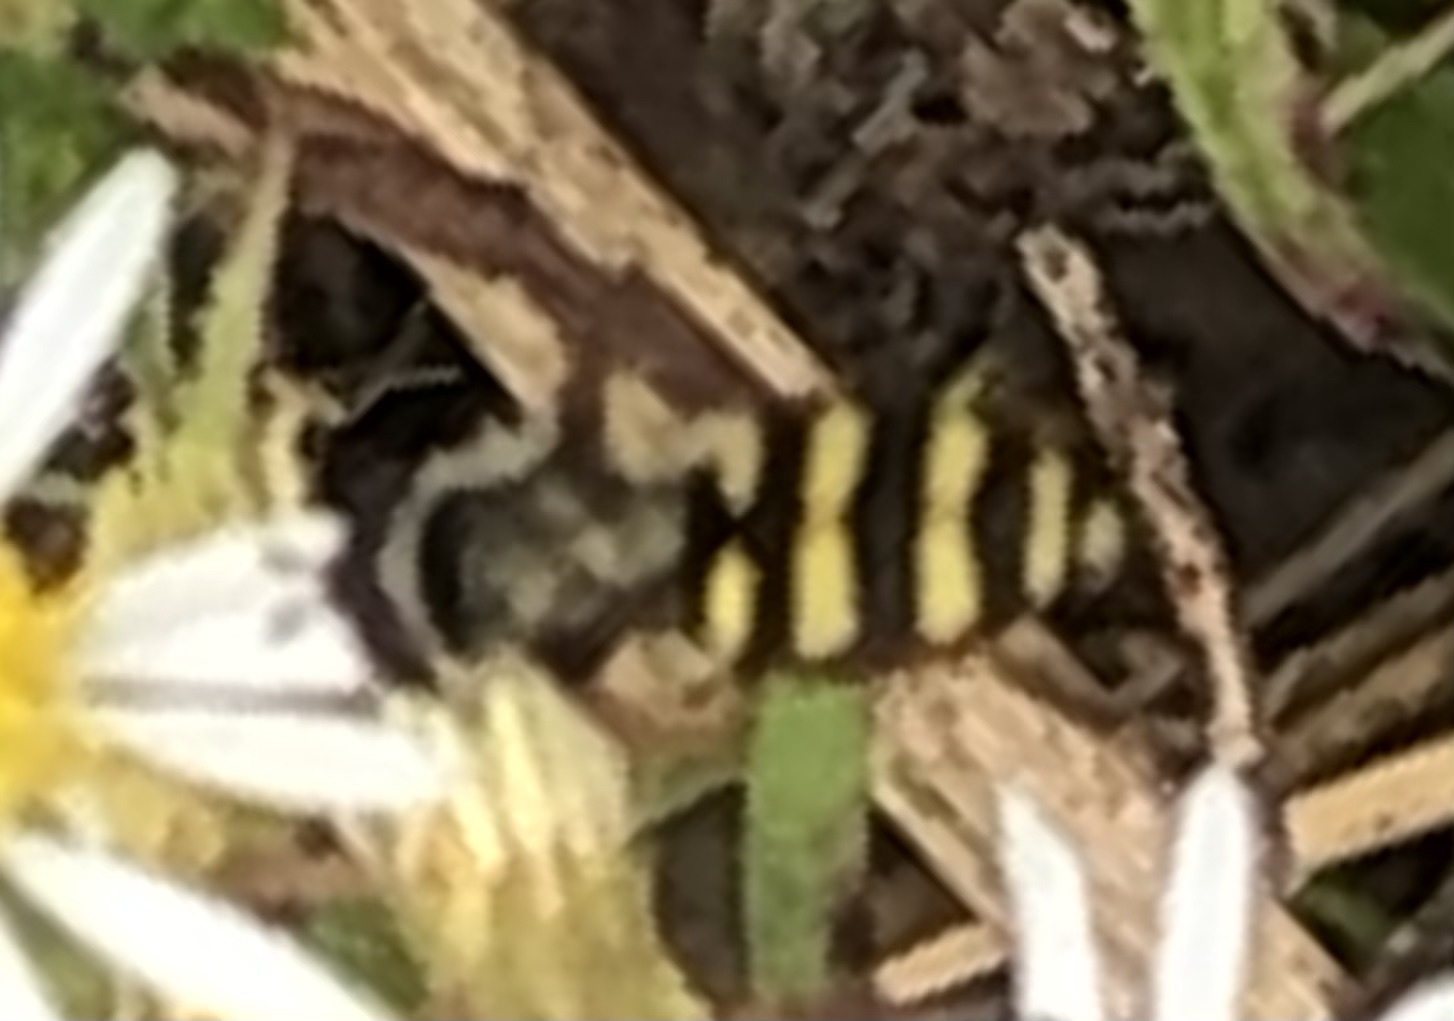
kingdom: Animalia
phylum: Arthropoda
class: Insecta
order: Diptera
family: Syrphidae
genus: Eupeodes
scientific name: Eupeodes
